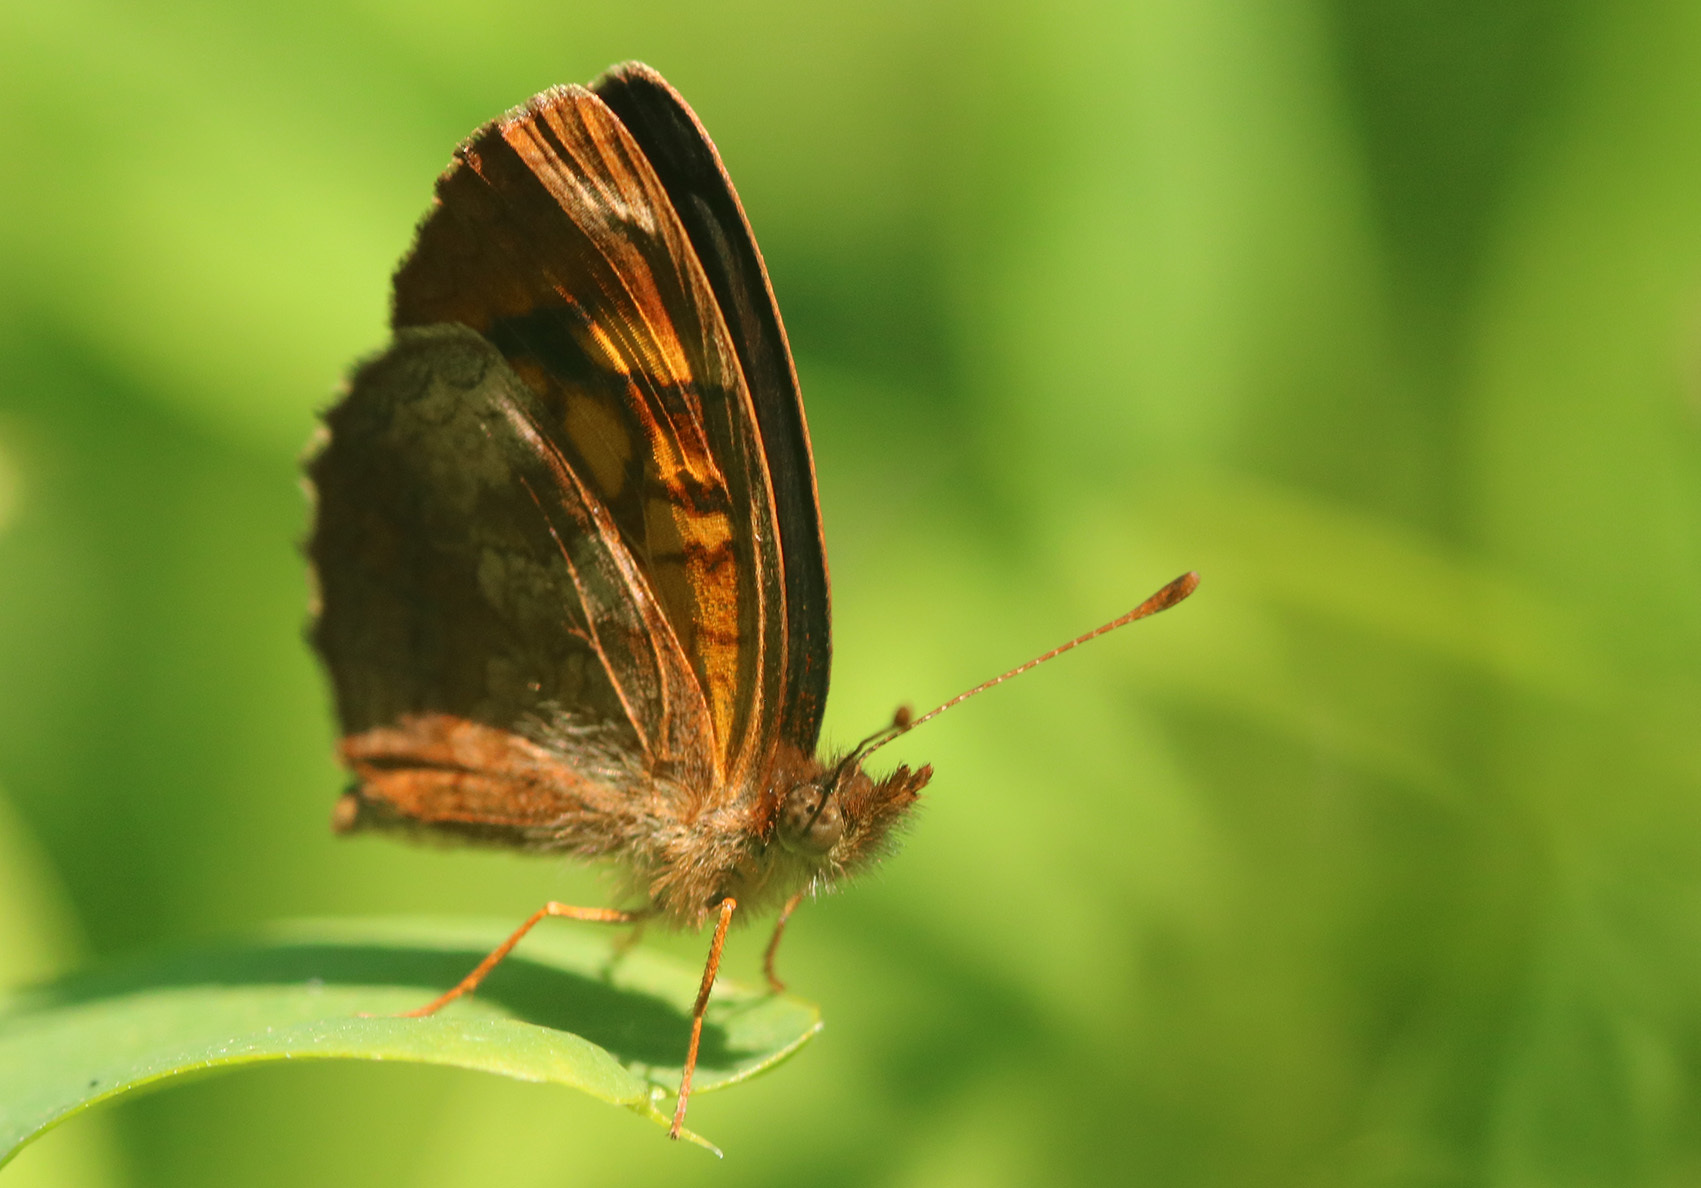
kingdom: Animalia
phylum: Arthropoda
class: Insecta
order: Lepidoptera
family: Nymphalidae
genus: Ortilia
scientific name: Ortilia velica
